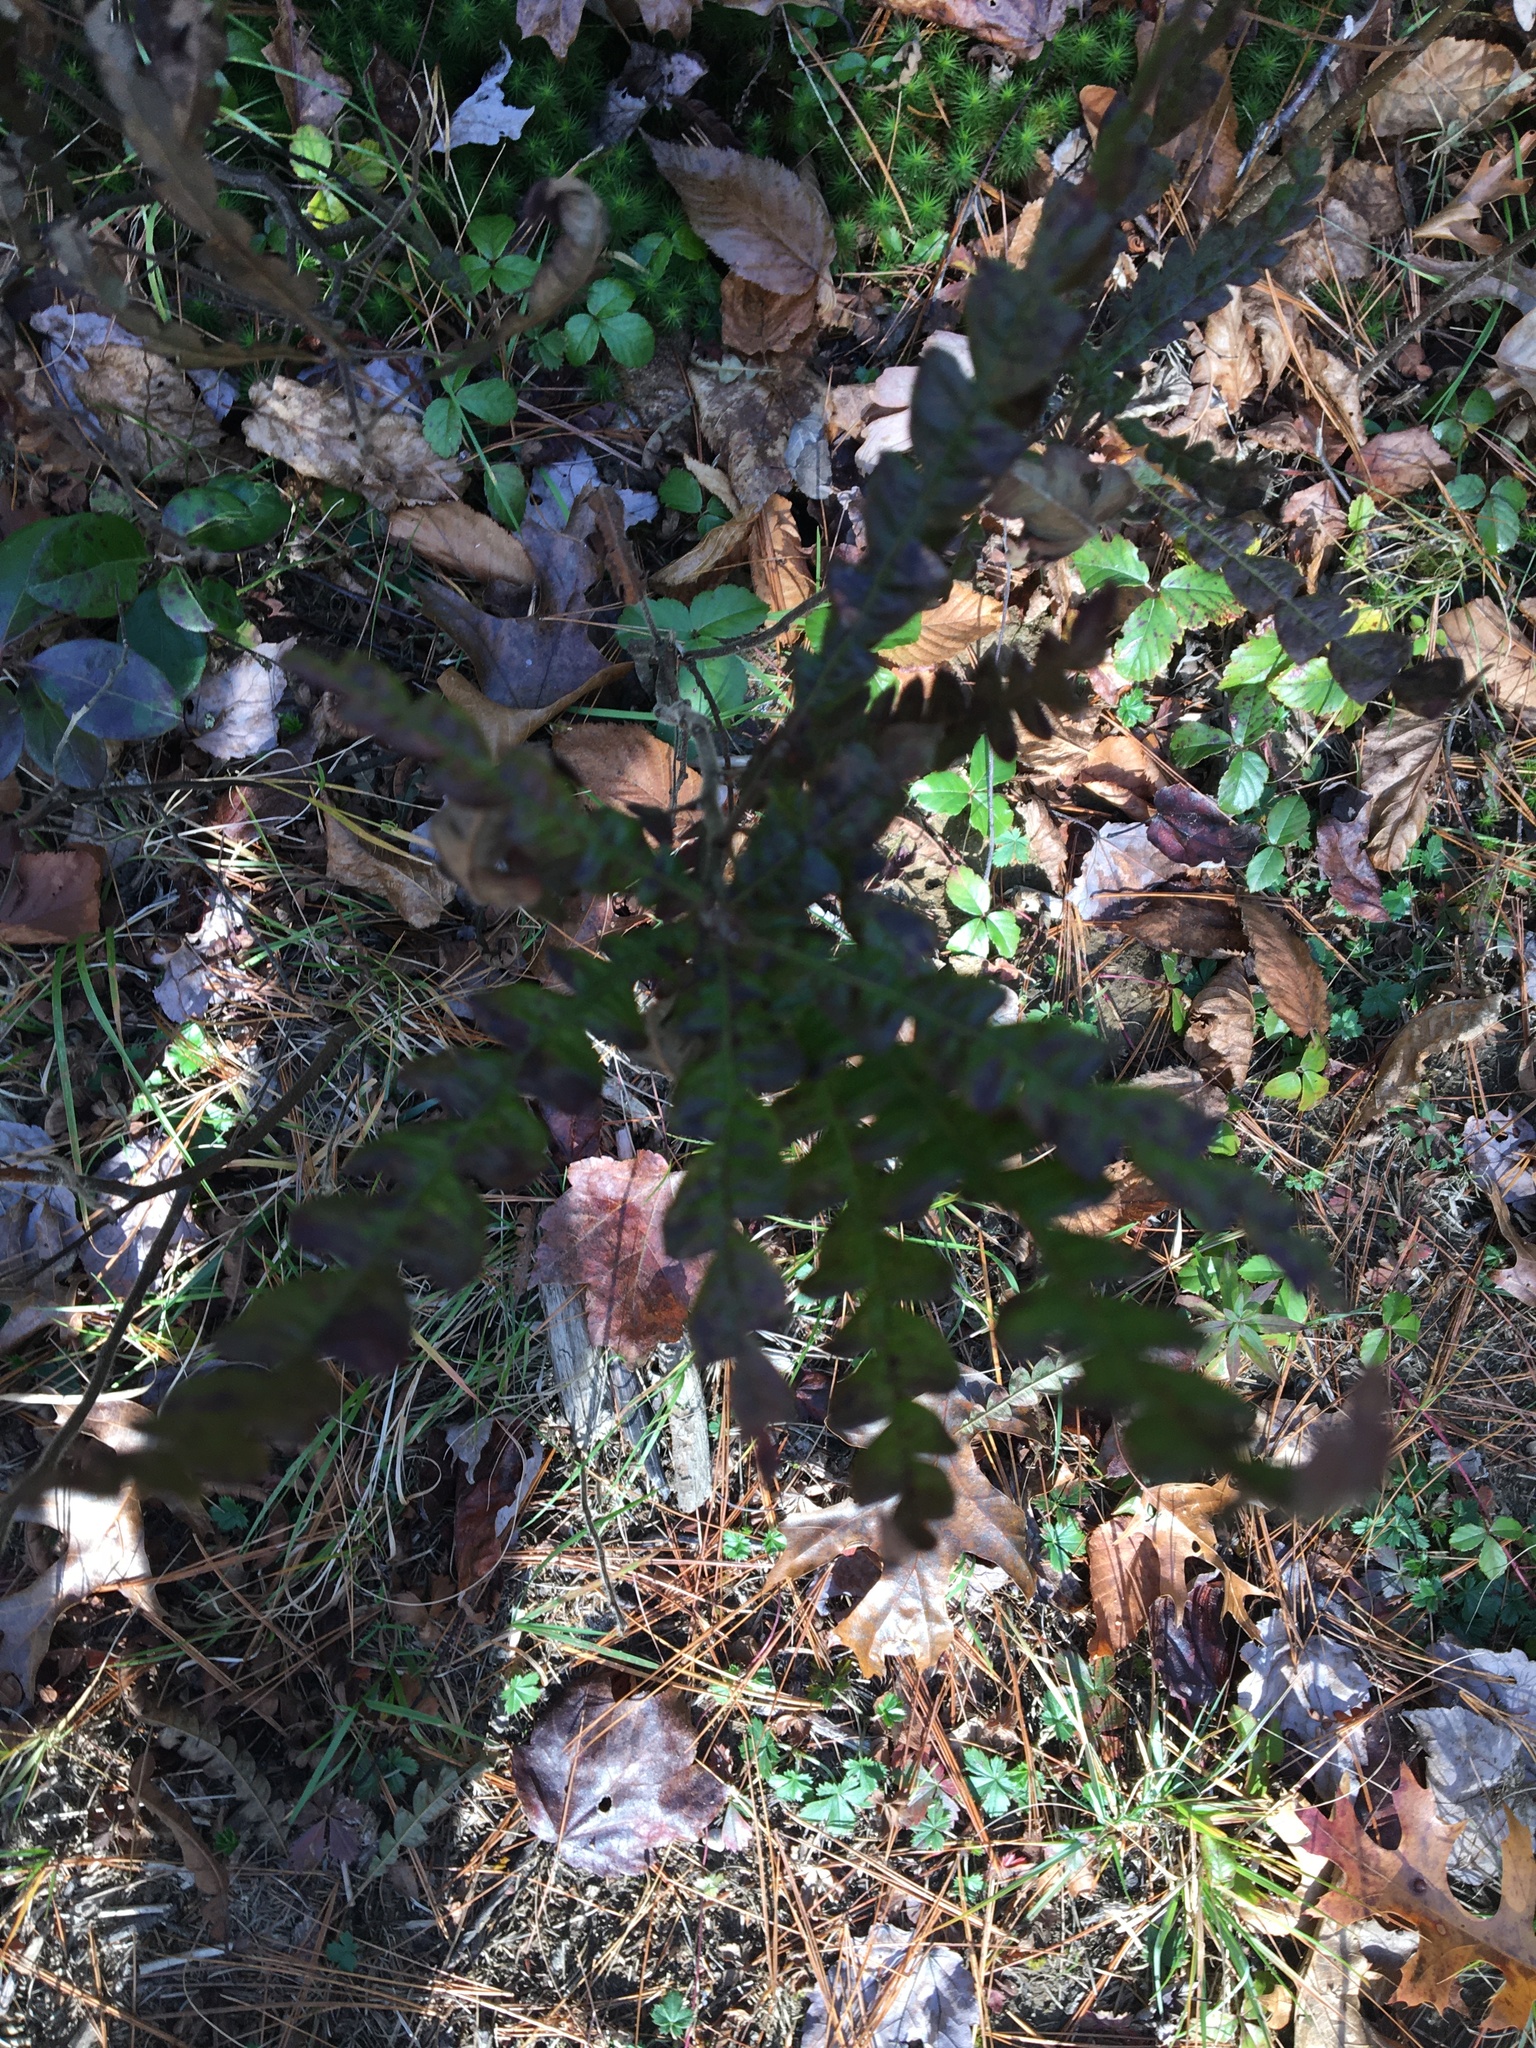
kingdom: Plantae
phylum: Tracheophyta
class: Magnoliopsida
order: Fagales
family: Myricaceae
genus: Comptonia
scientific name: Comptonia peregrina
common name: Sweet-fern
